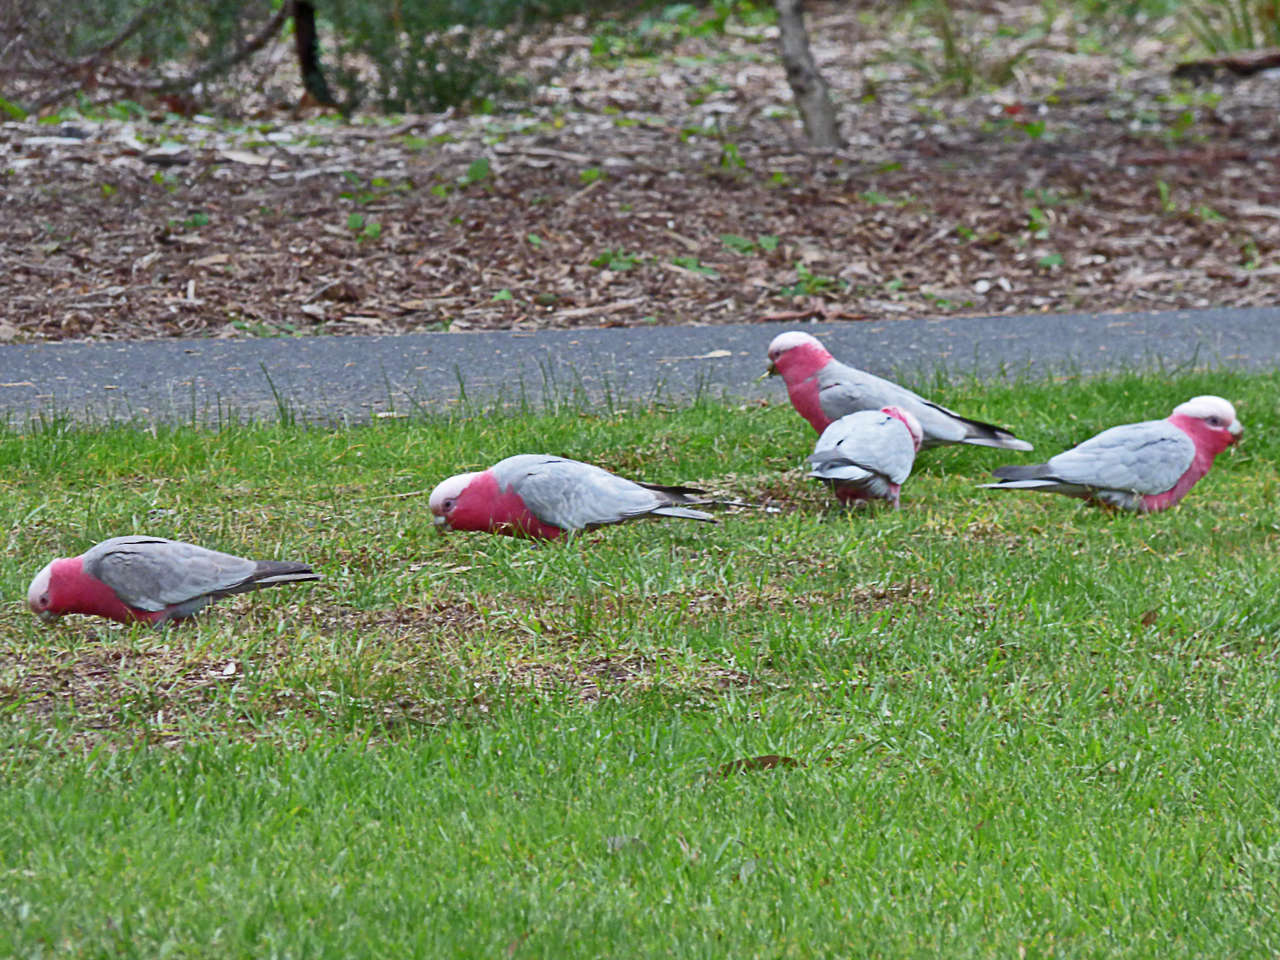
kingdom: Animalia
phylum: Chordata
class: Aves
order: Psittaciformes
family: Psittacidae
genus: Eolophus
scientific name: Eolophus roseicapilla
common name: Galah
